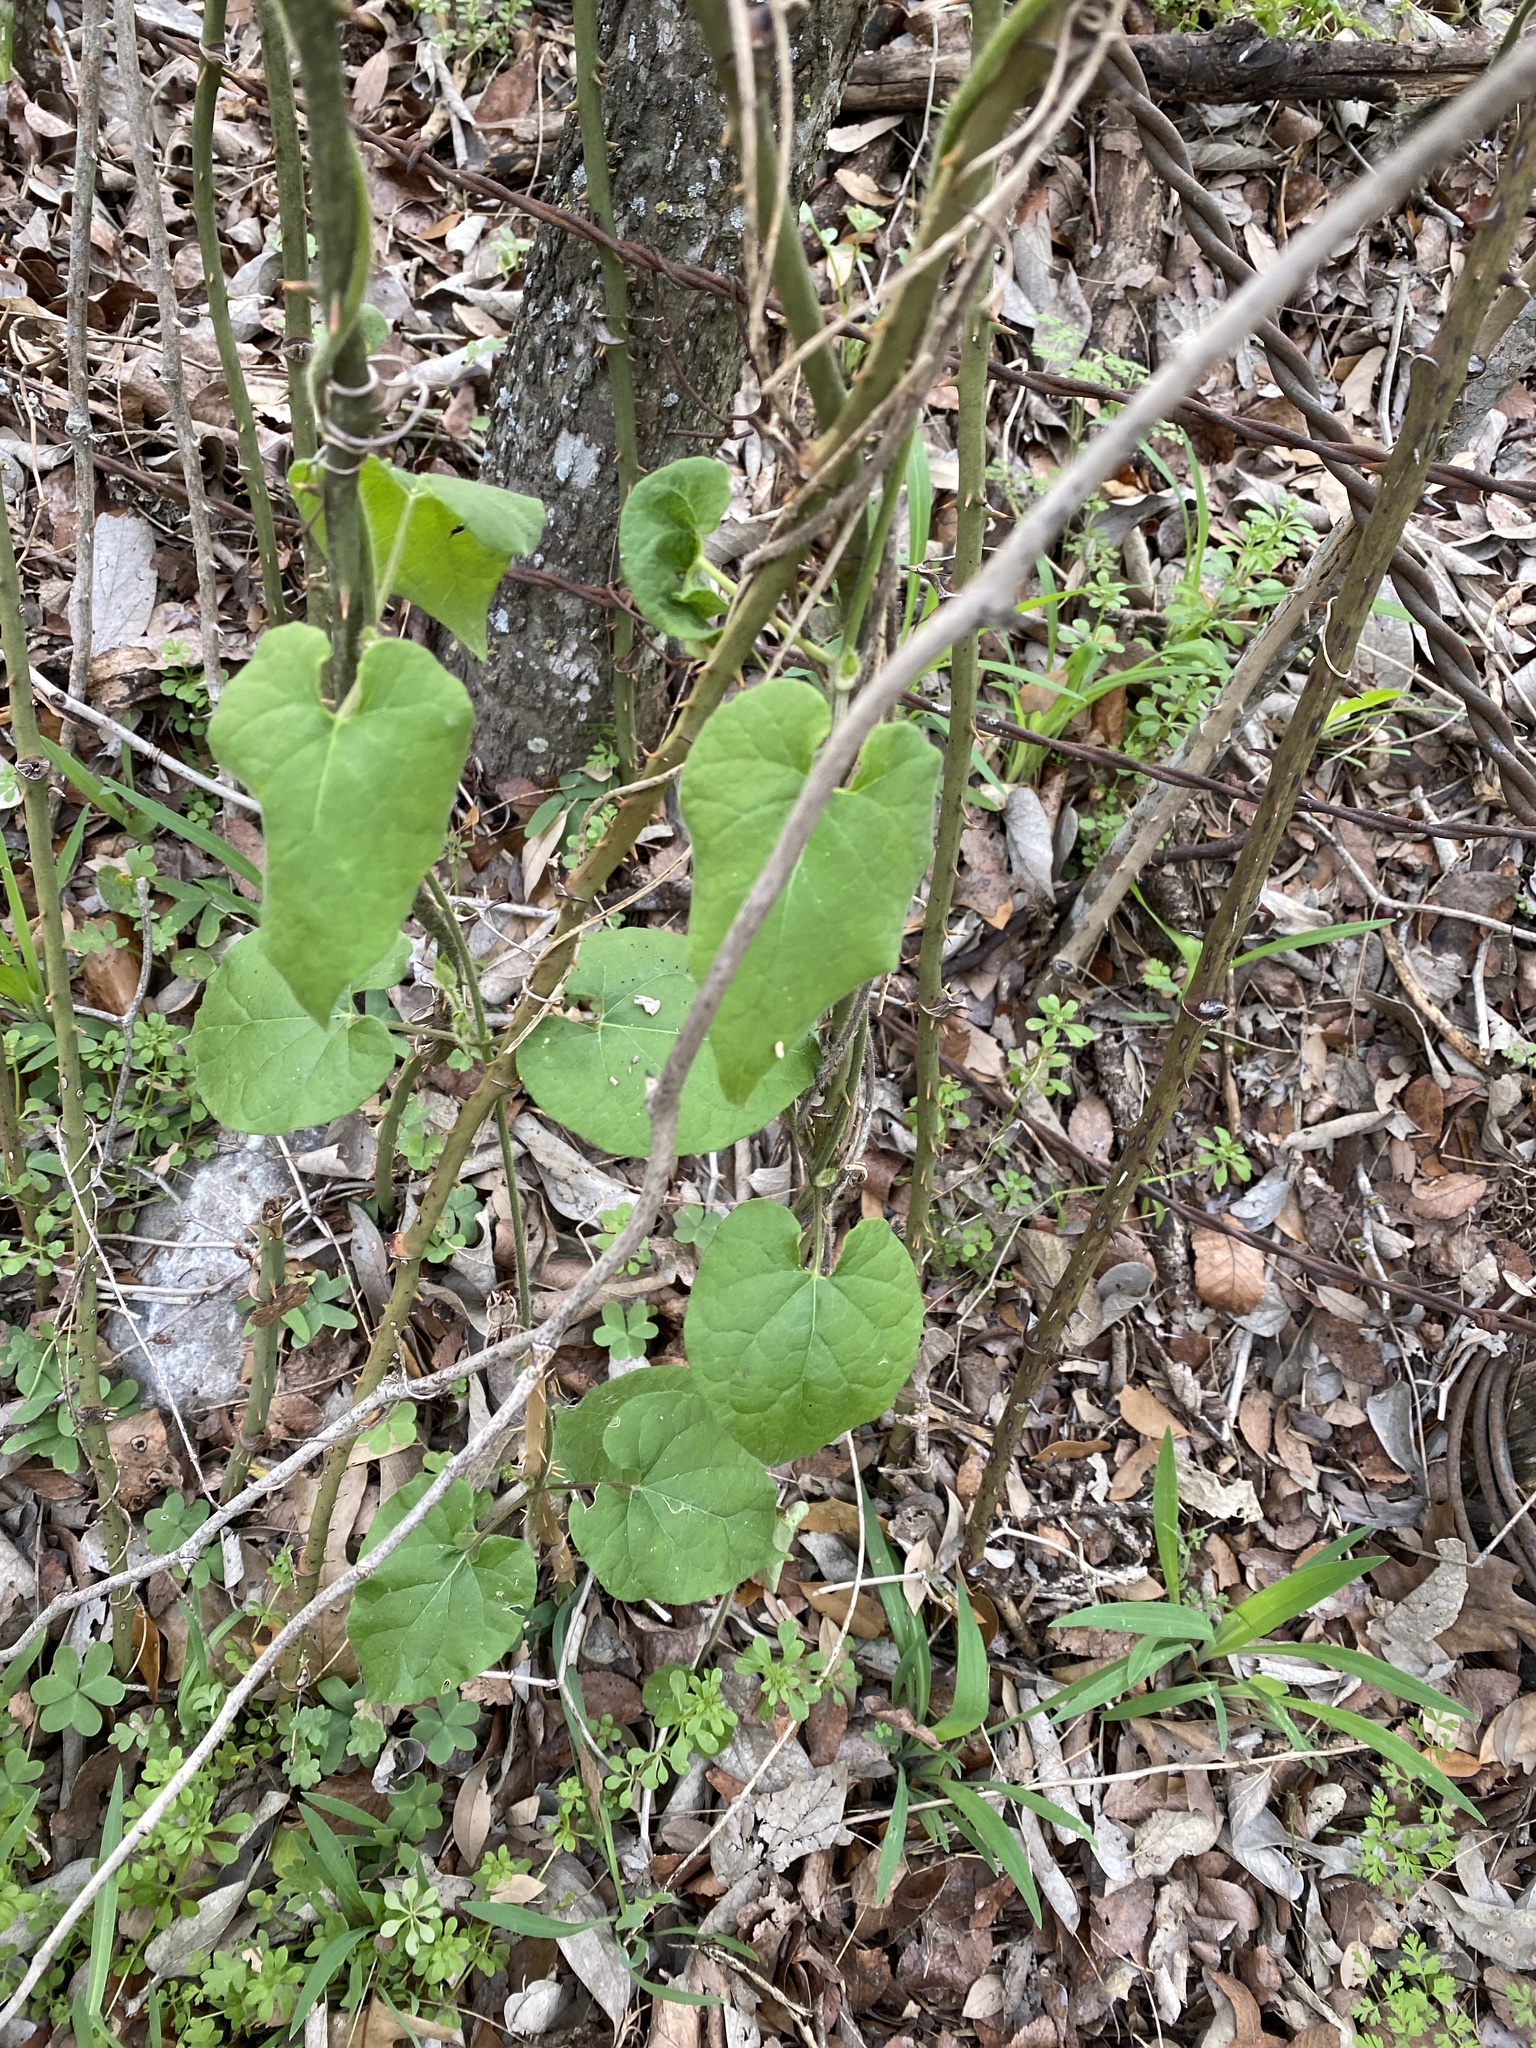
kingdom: Plantae
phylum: Tracheophyta
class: Magnoliopsida
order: Gentianales
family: Apocynaceae
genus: Dictyanthus
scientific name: Dictyanthus reticulatus
